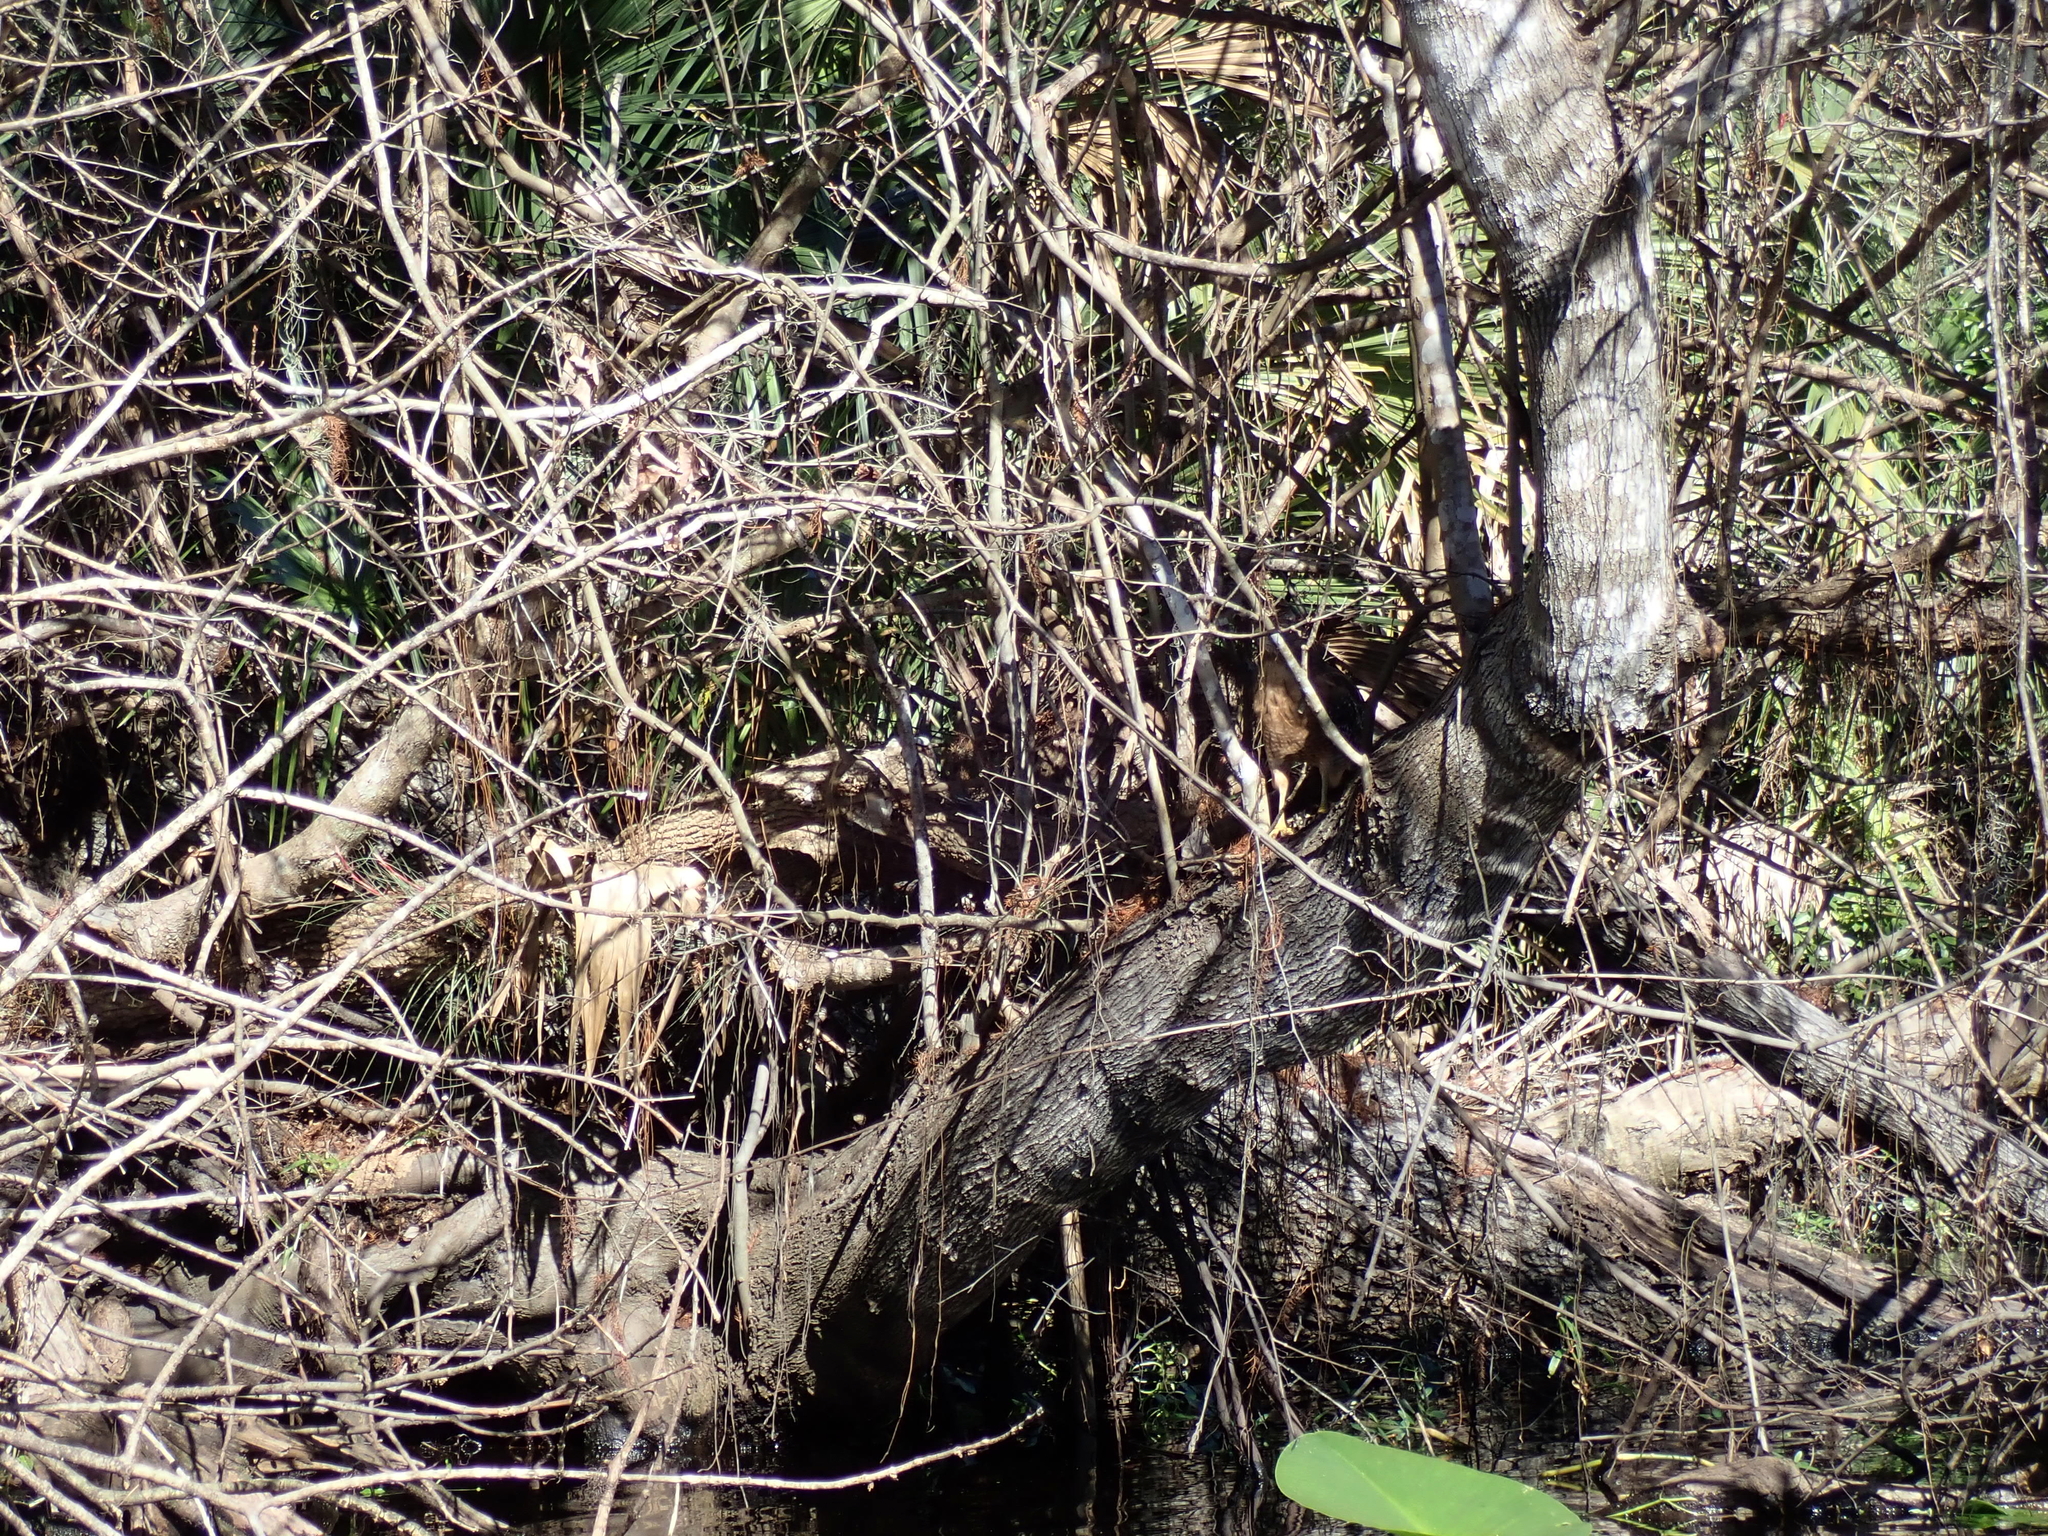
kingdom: Animalia
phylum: Chordata
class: Aves
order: Accipitriformes
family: Accipitridae
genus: Buteo
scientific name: Buteo lineatus
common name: Red-shouldered hawk
